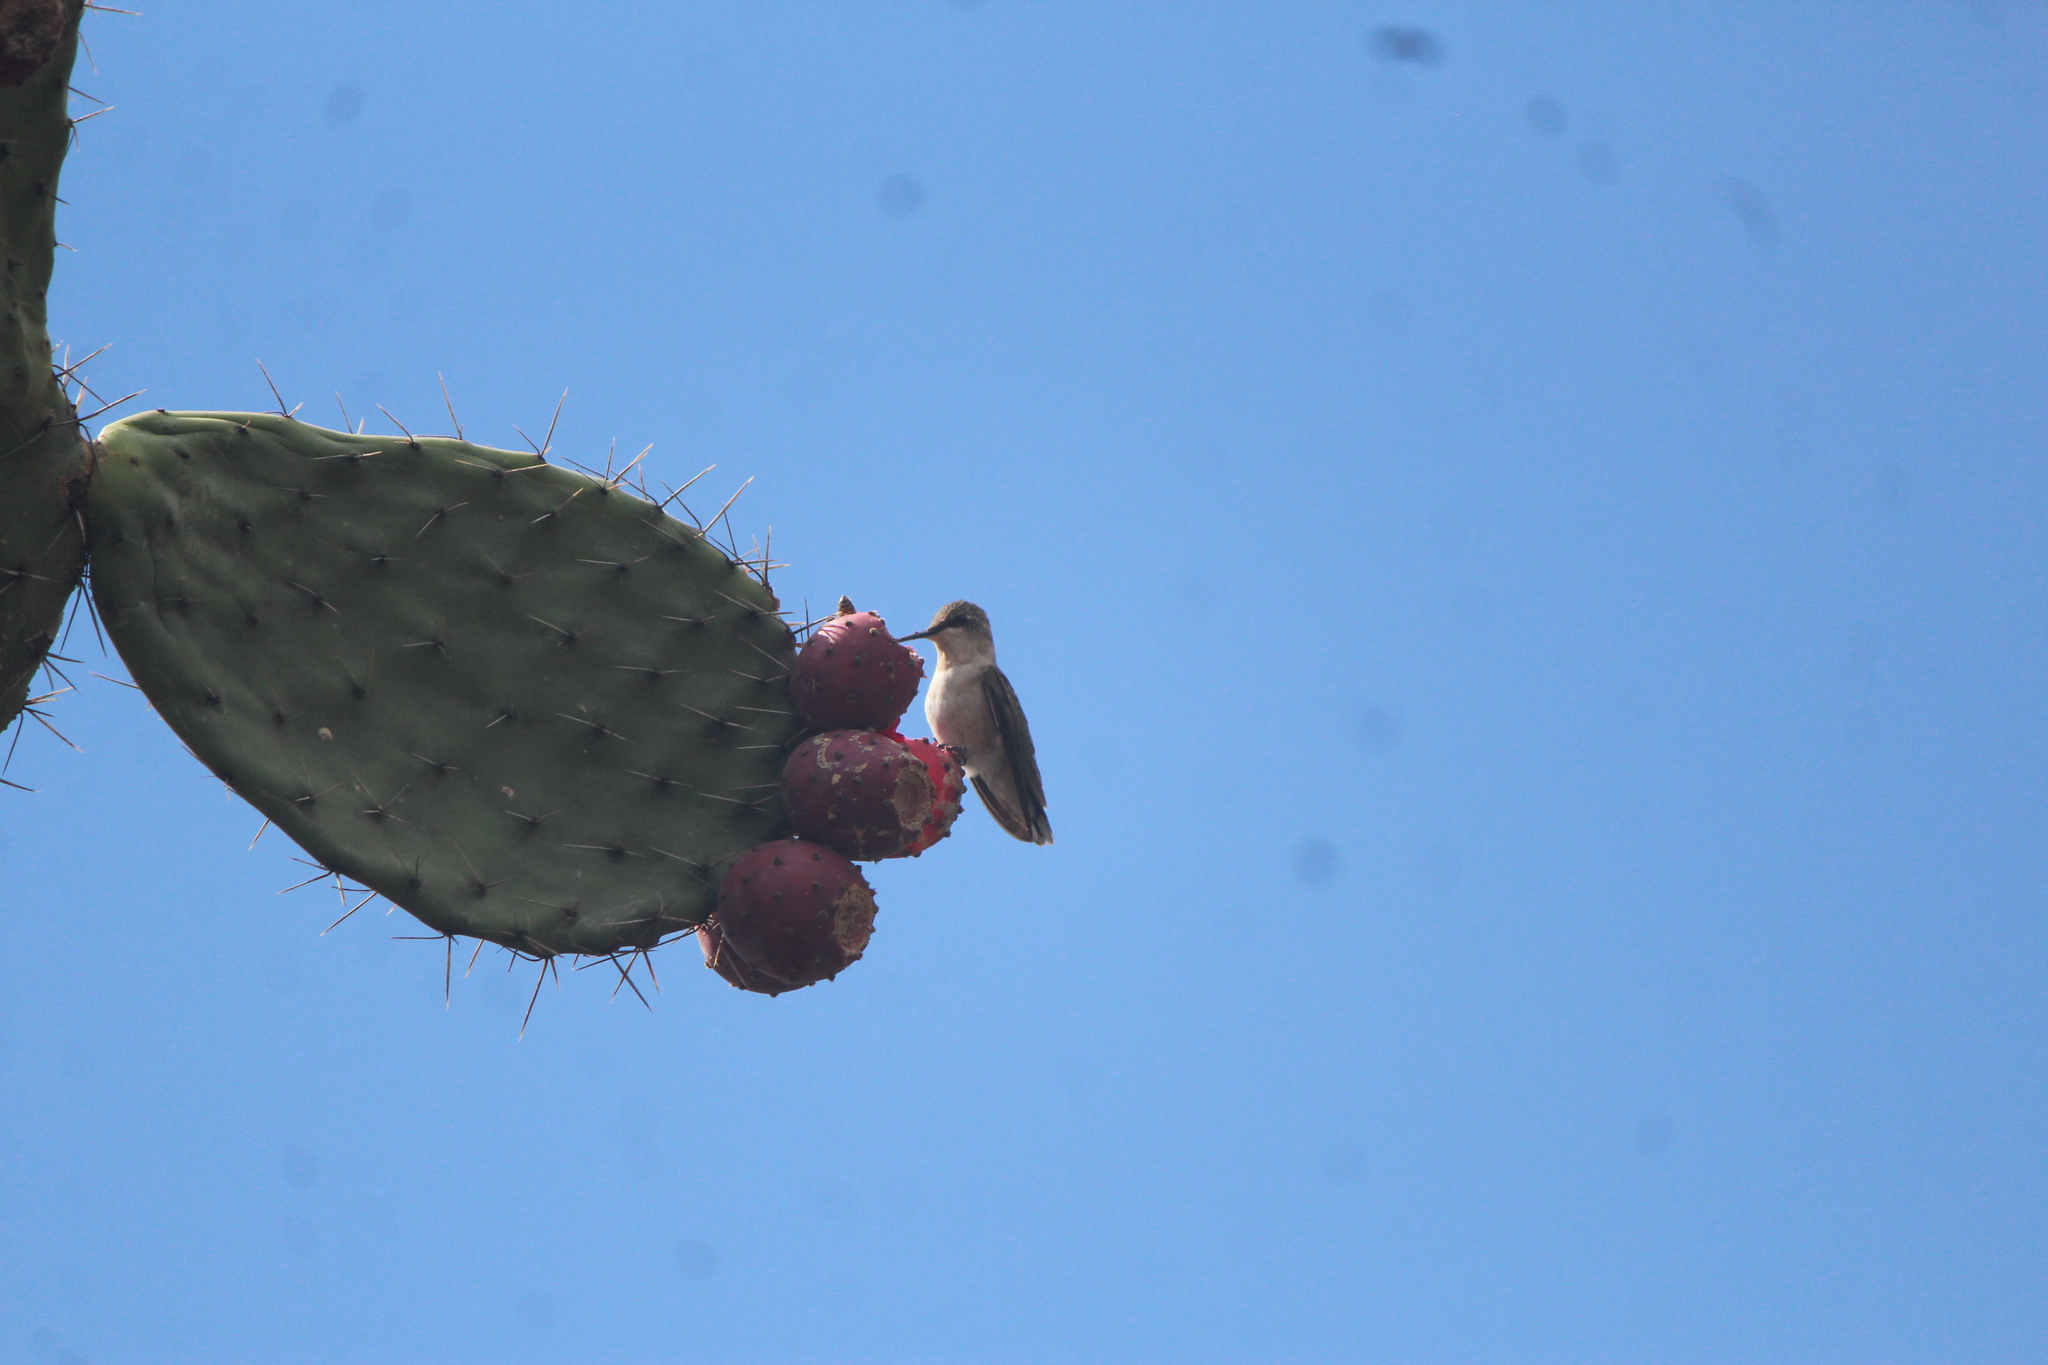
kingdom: Animalia
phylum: Chordata
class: Aves
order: Apodiformes
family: Trochilidae
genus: Archilochus
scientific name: Archilochus colubris
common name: Ruby-throated hummingbird
